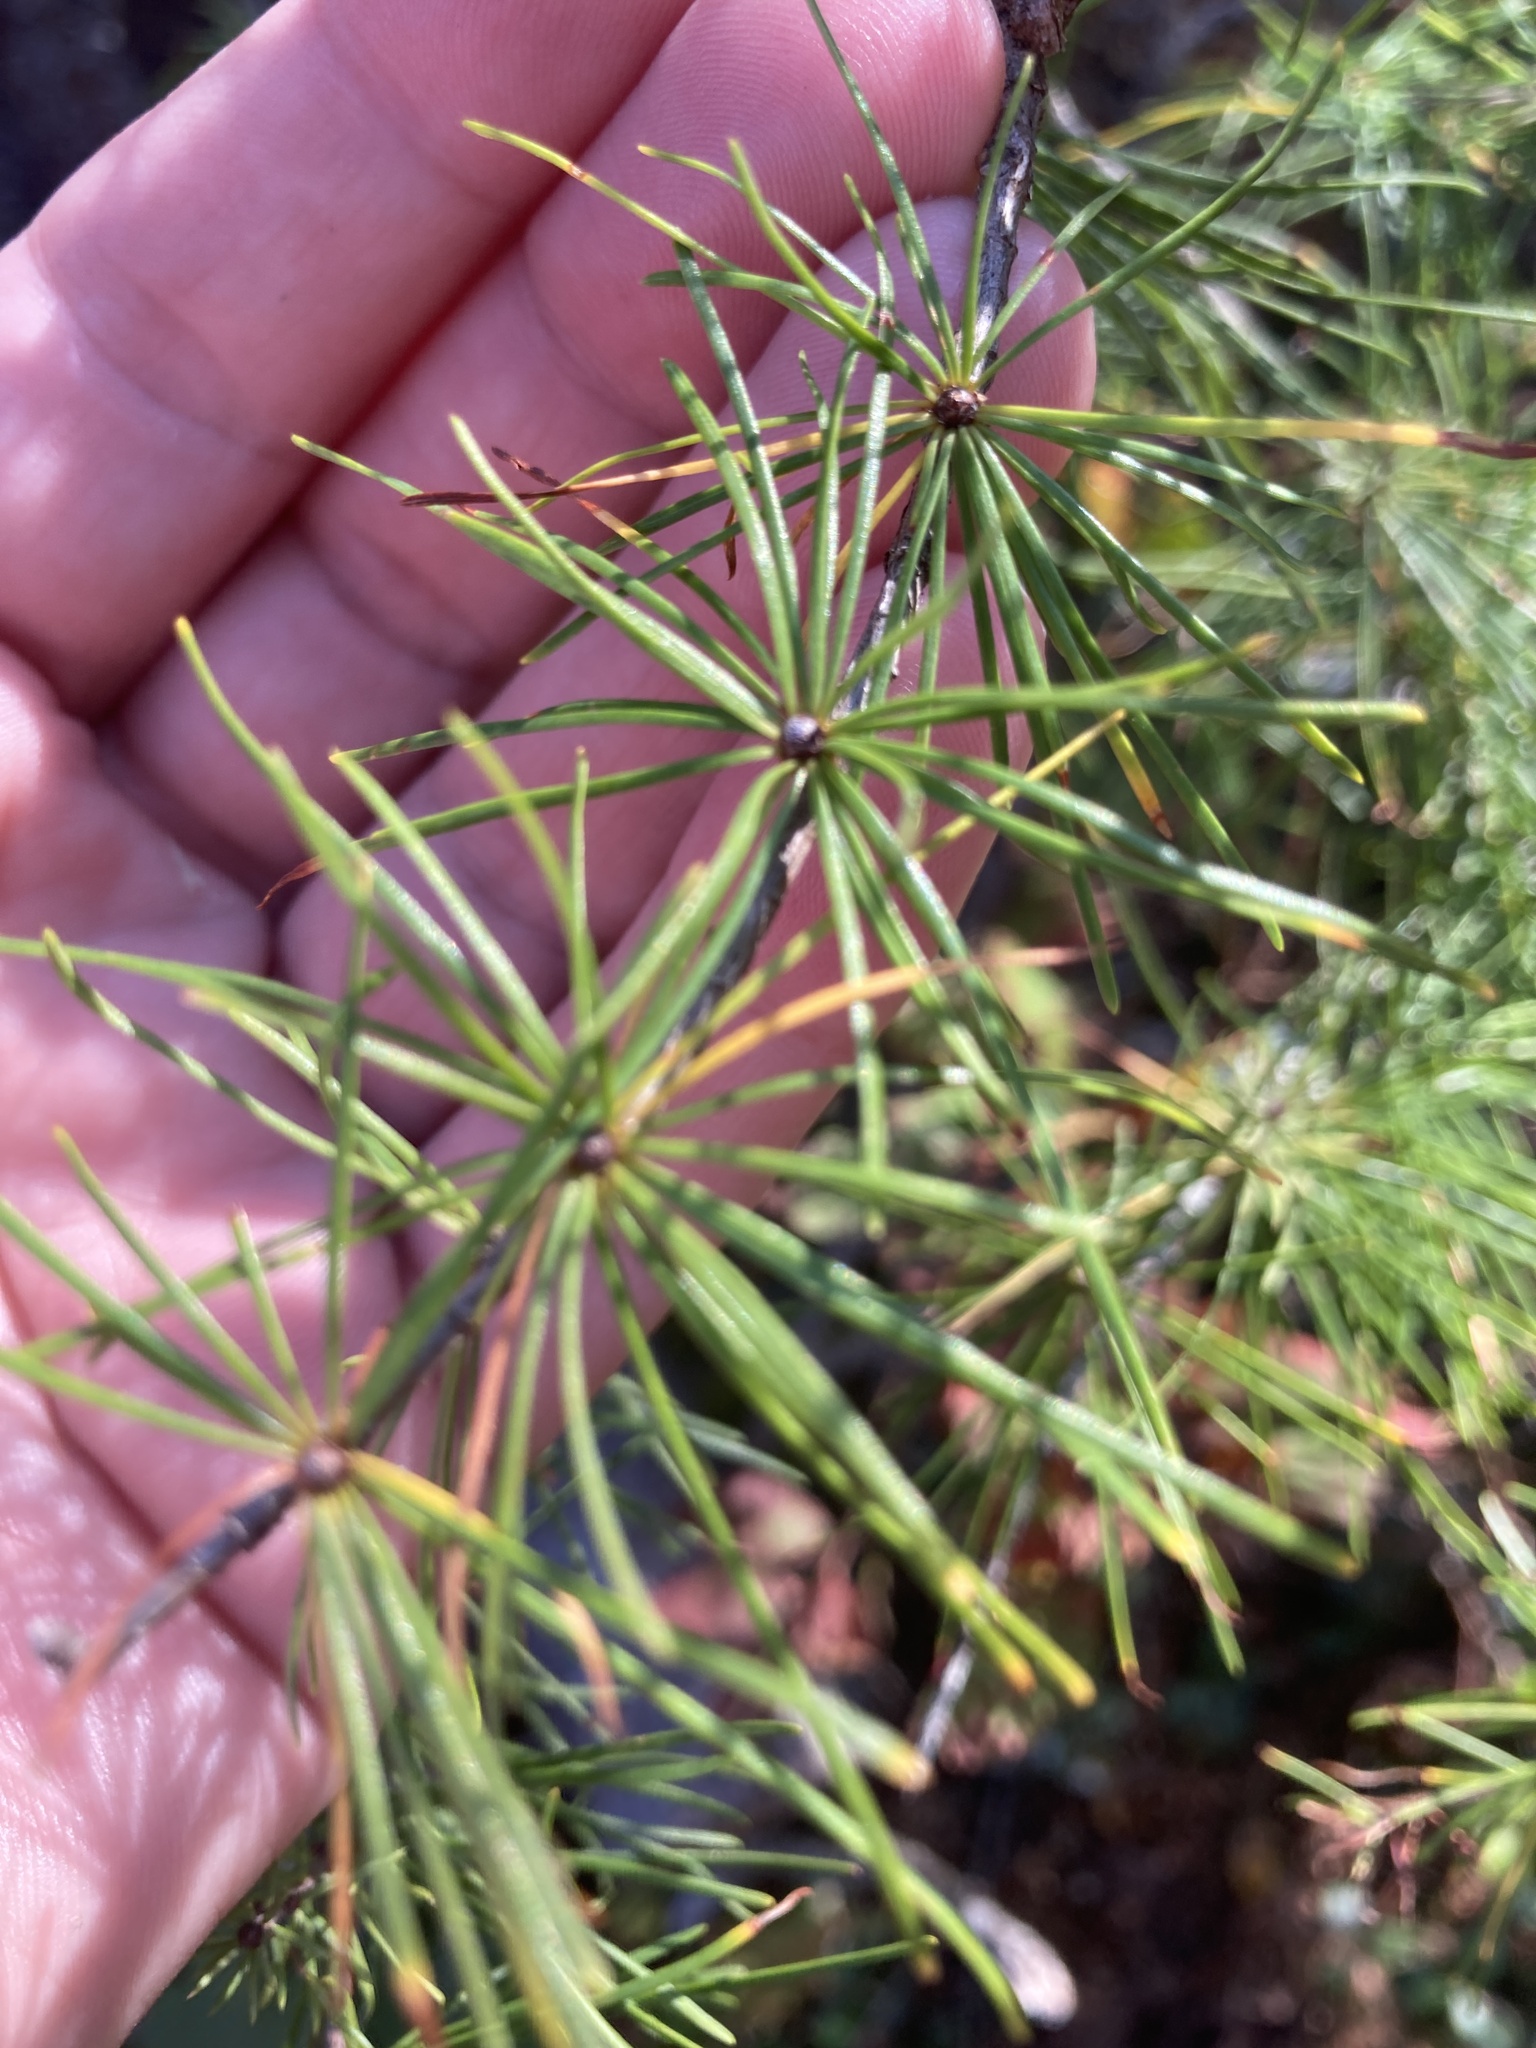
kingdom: Plantae
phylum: Tracheophyta
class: Pinopsida
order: Pinales
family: Pinaceae
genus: Larix
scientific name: Larix laricina
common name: American larch
